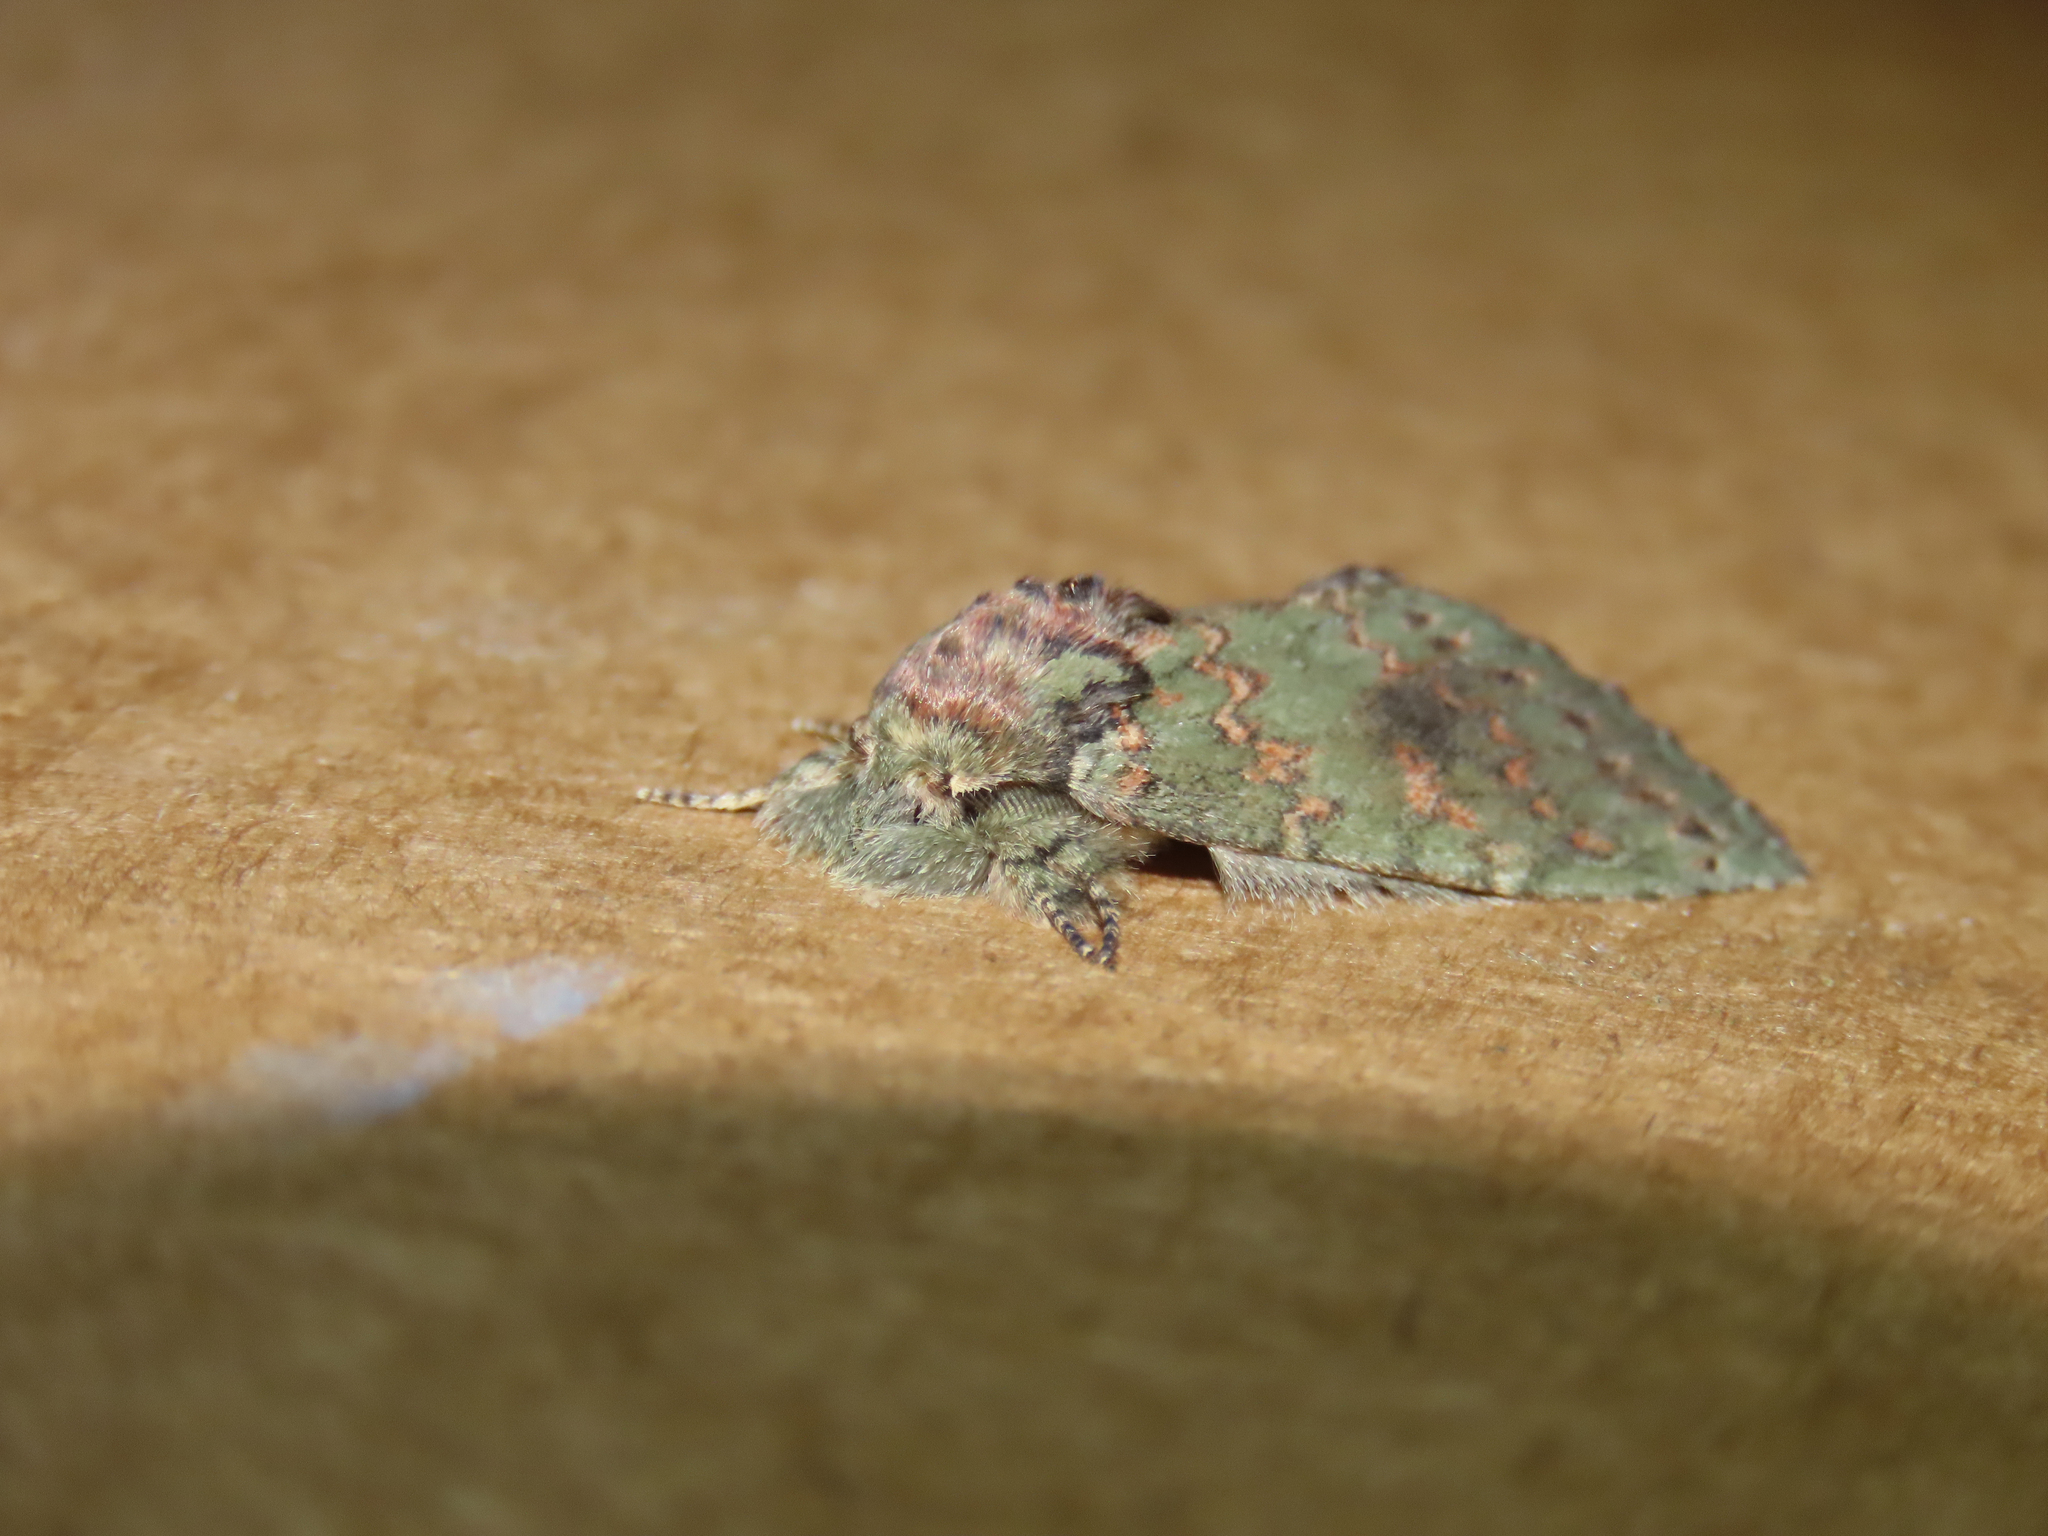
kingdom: Animalia
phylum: Arthropoda
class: Insecta
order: Lepidoptera
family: Notodontidae
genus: Disphragis
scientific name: Disphragis Cecrita biundata
